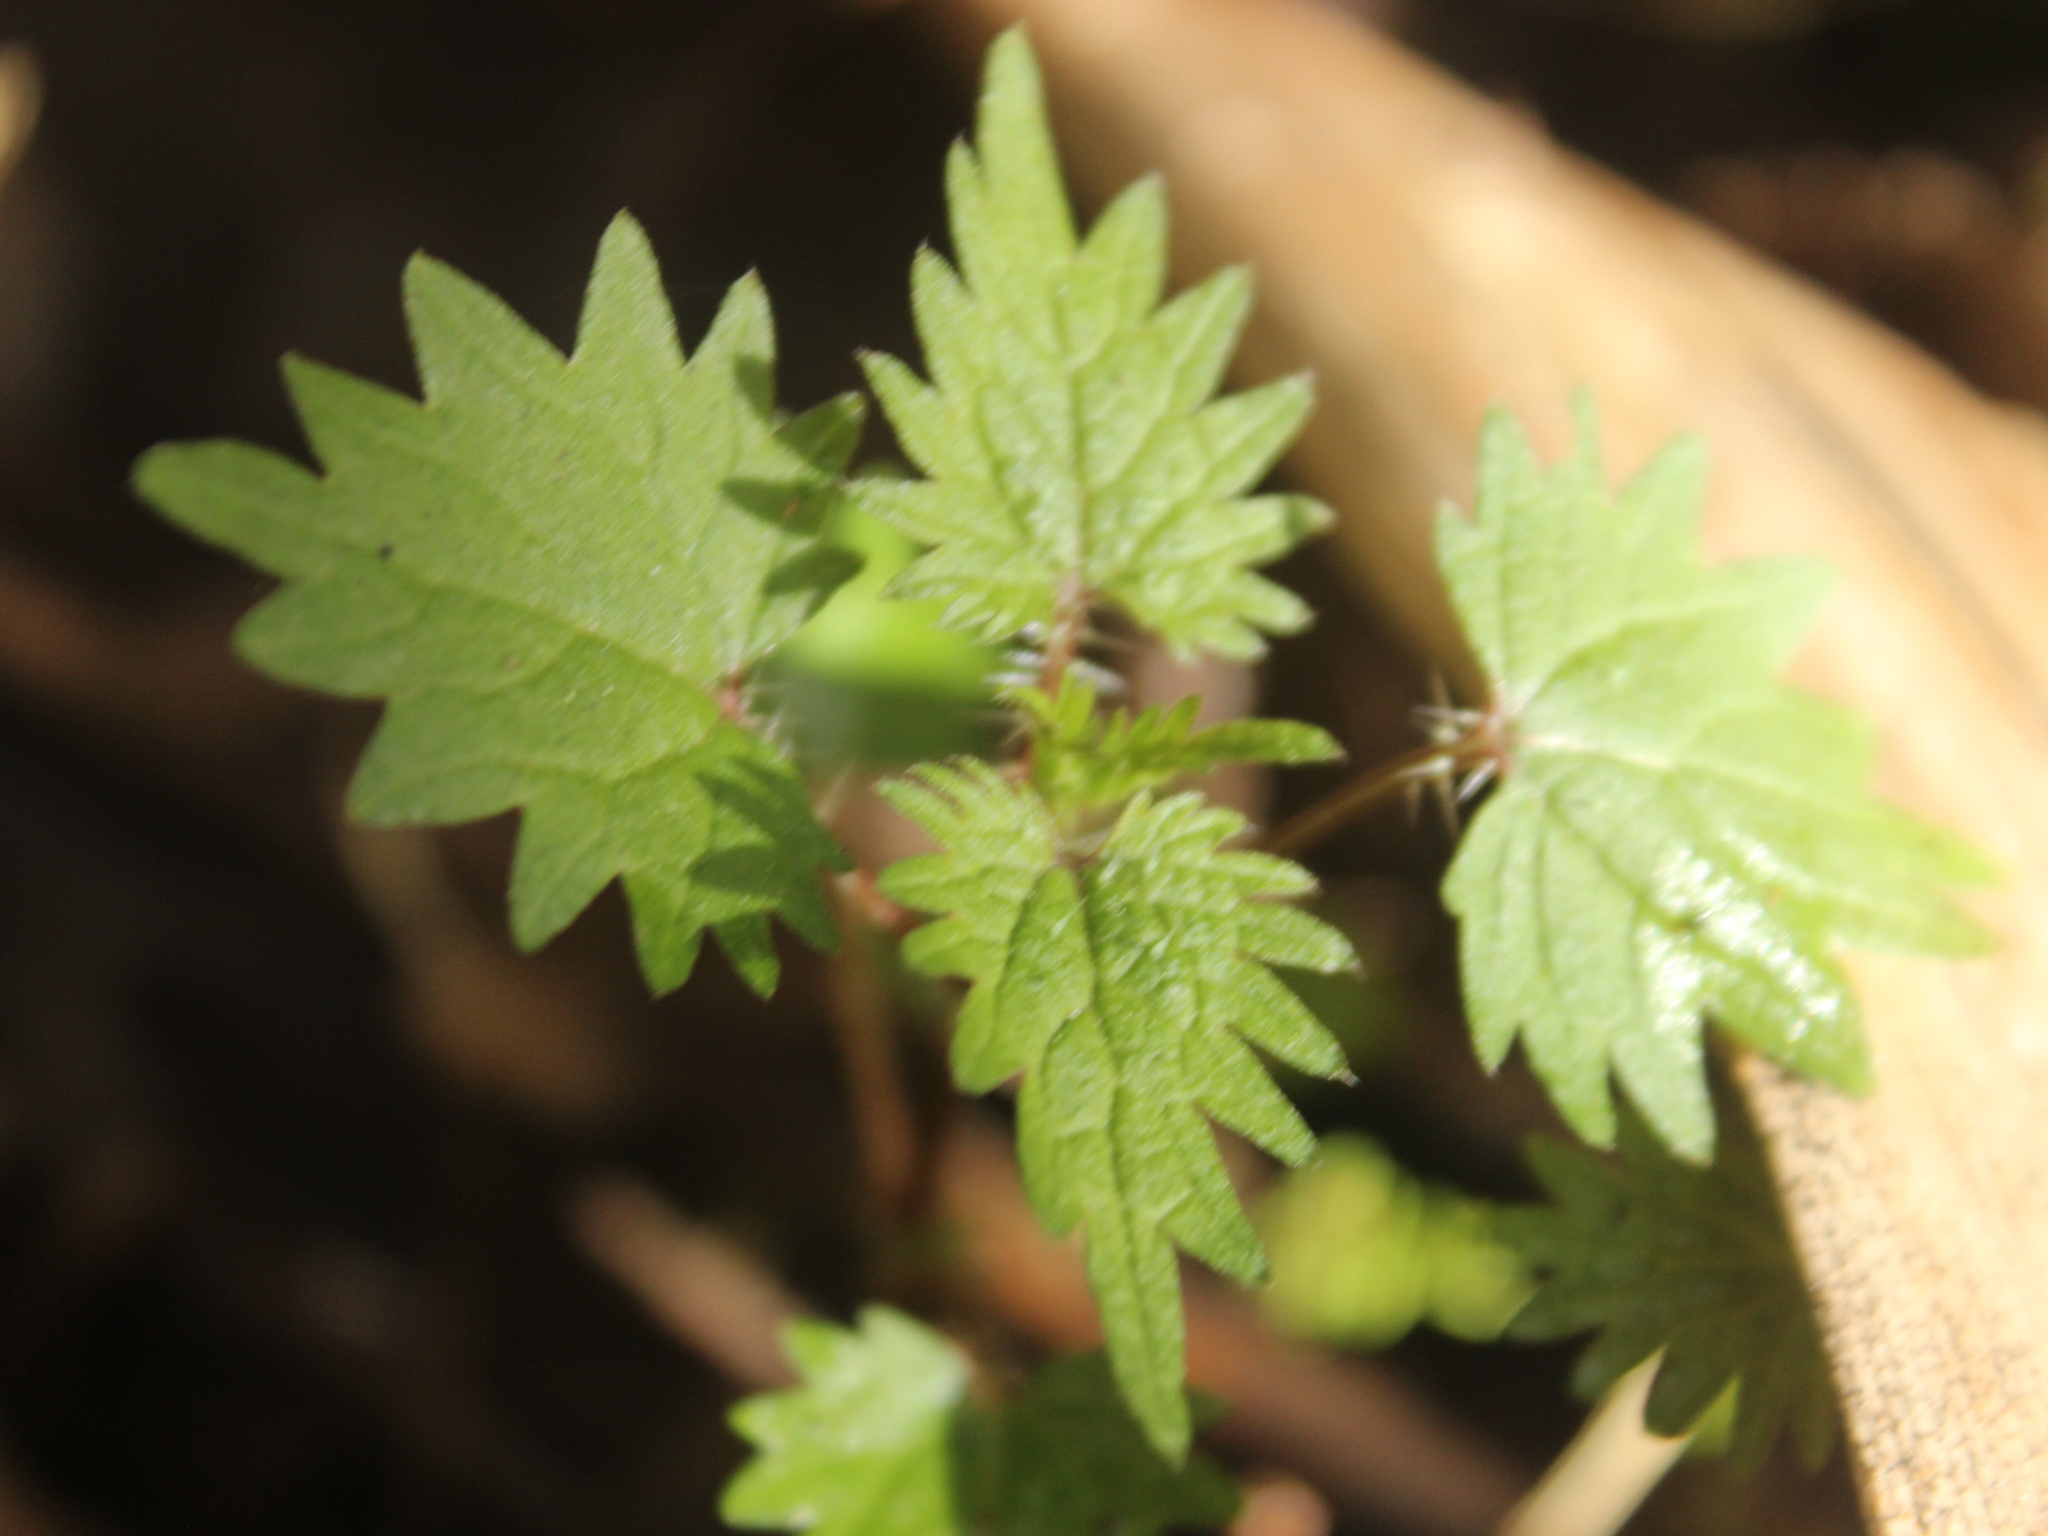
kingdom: Plantae
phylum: Tracheophyta
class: Magnoliopsida
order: Rosales
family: Urticaceae
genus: Urtica
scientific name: Urtica sykesii
